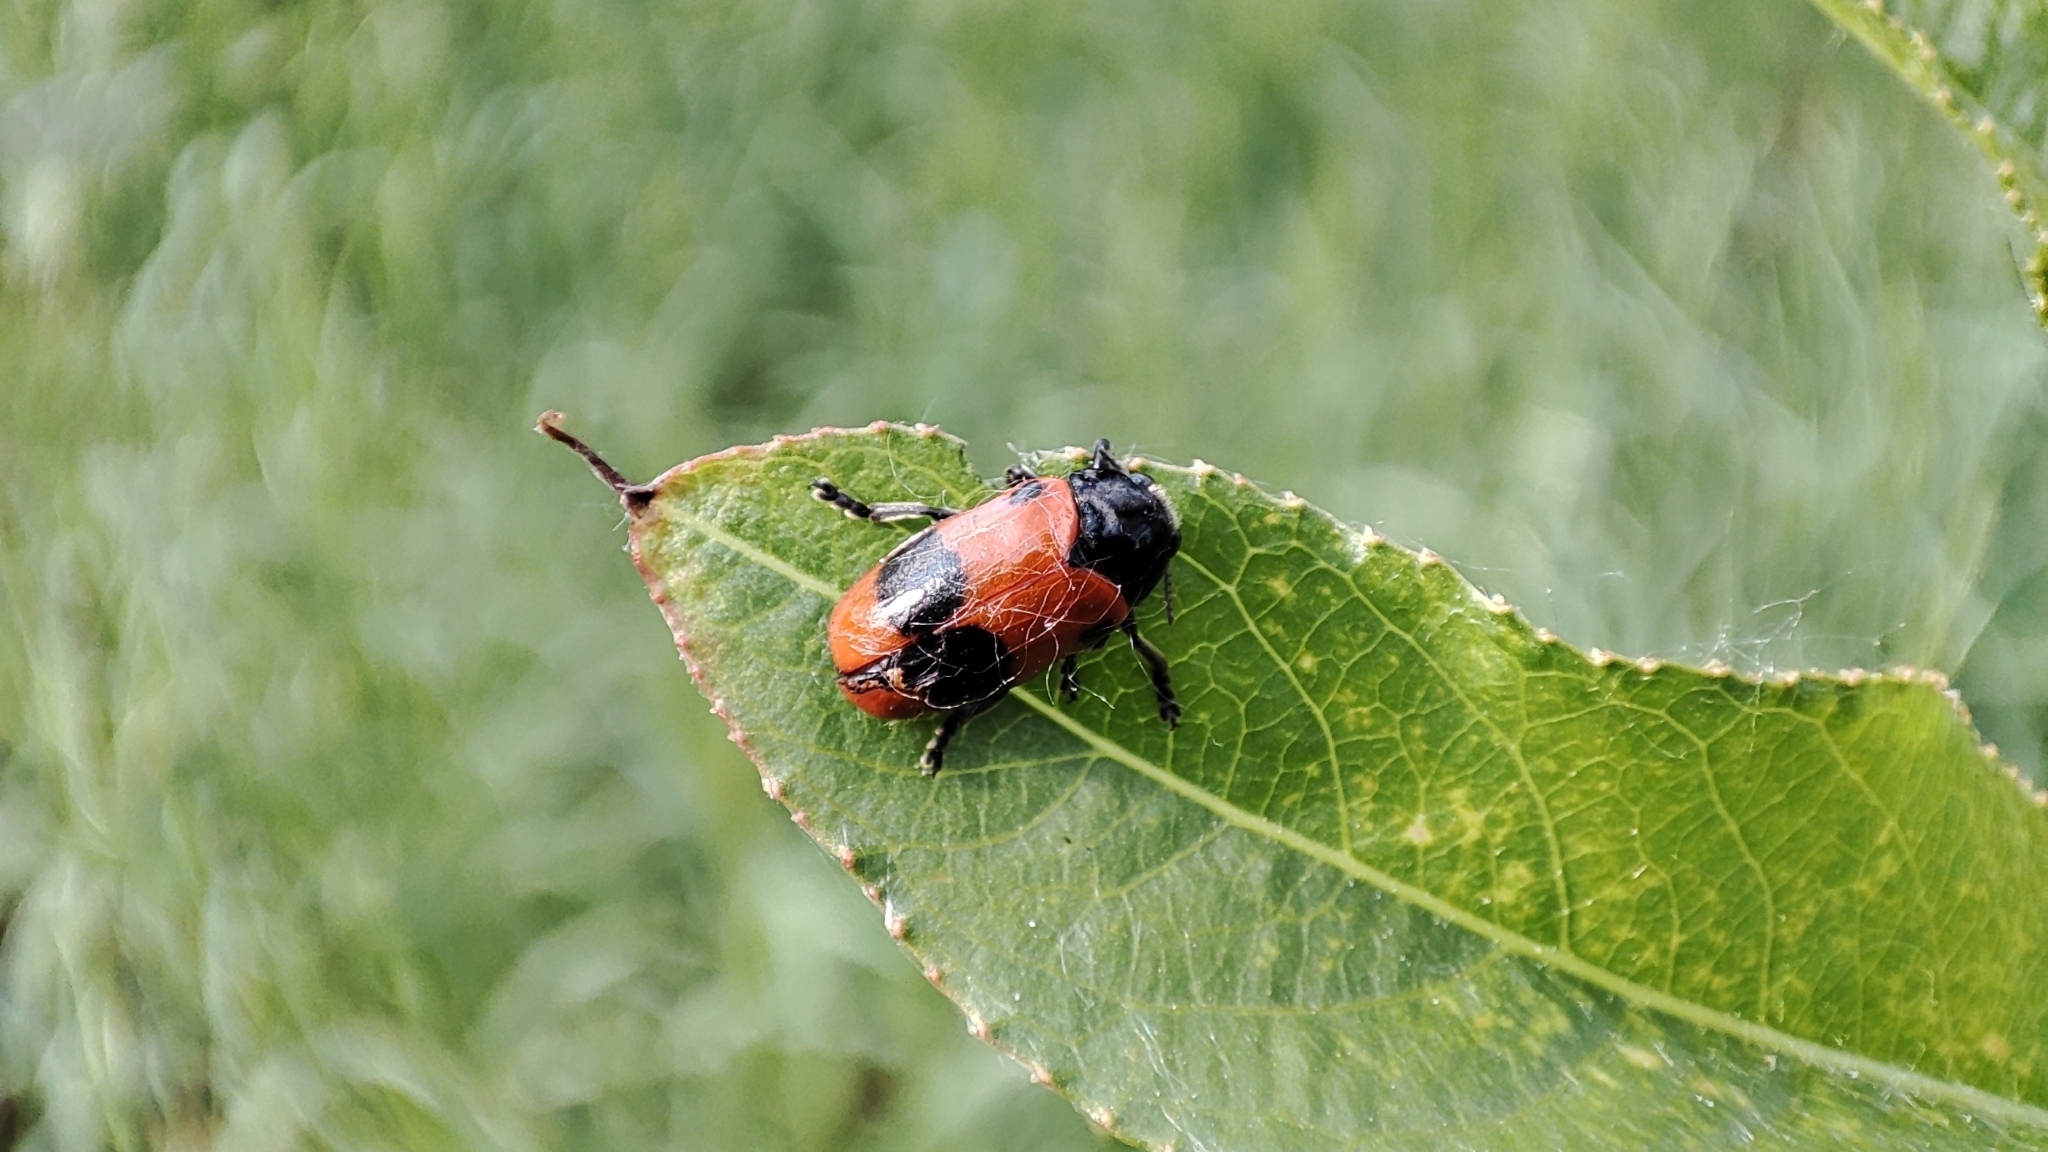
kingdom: Animalia
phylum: Arthropoda
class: Insecta
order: Coleoptera
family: Chrysomelidae
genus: Clytra
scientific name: Clytra laeviuscula
